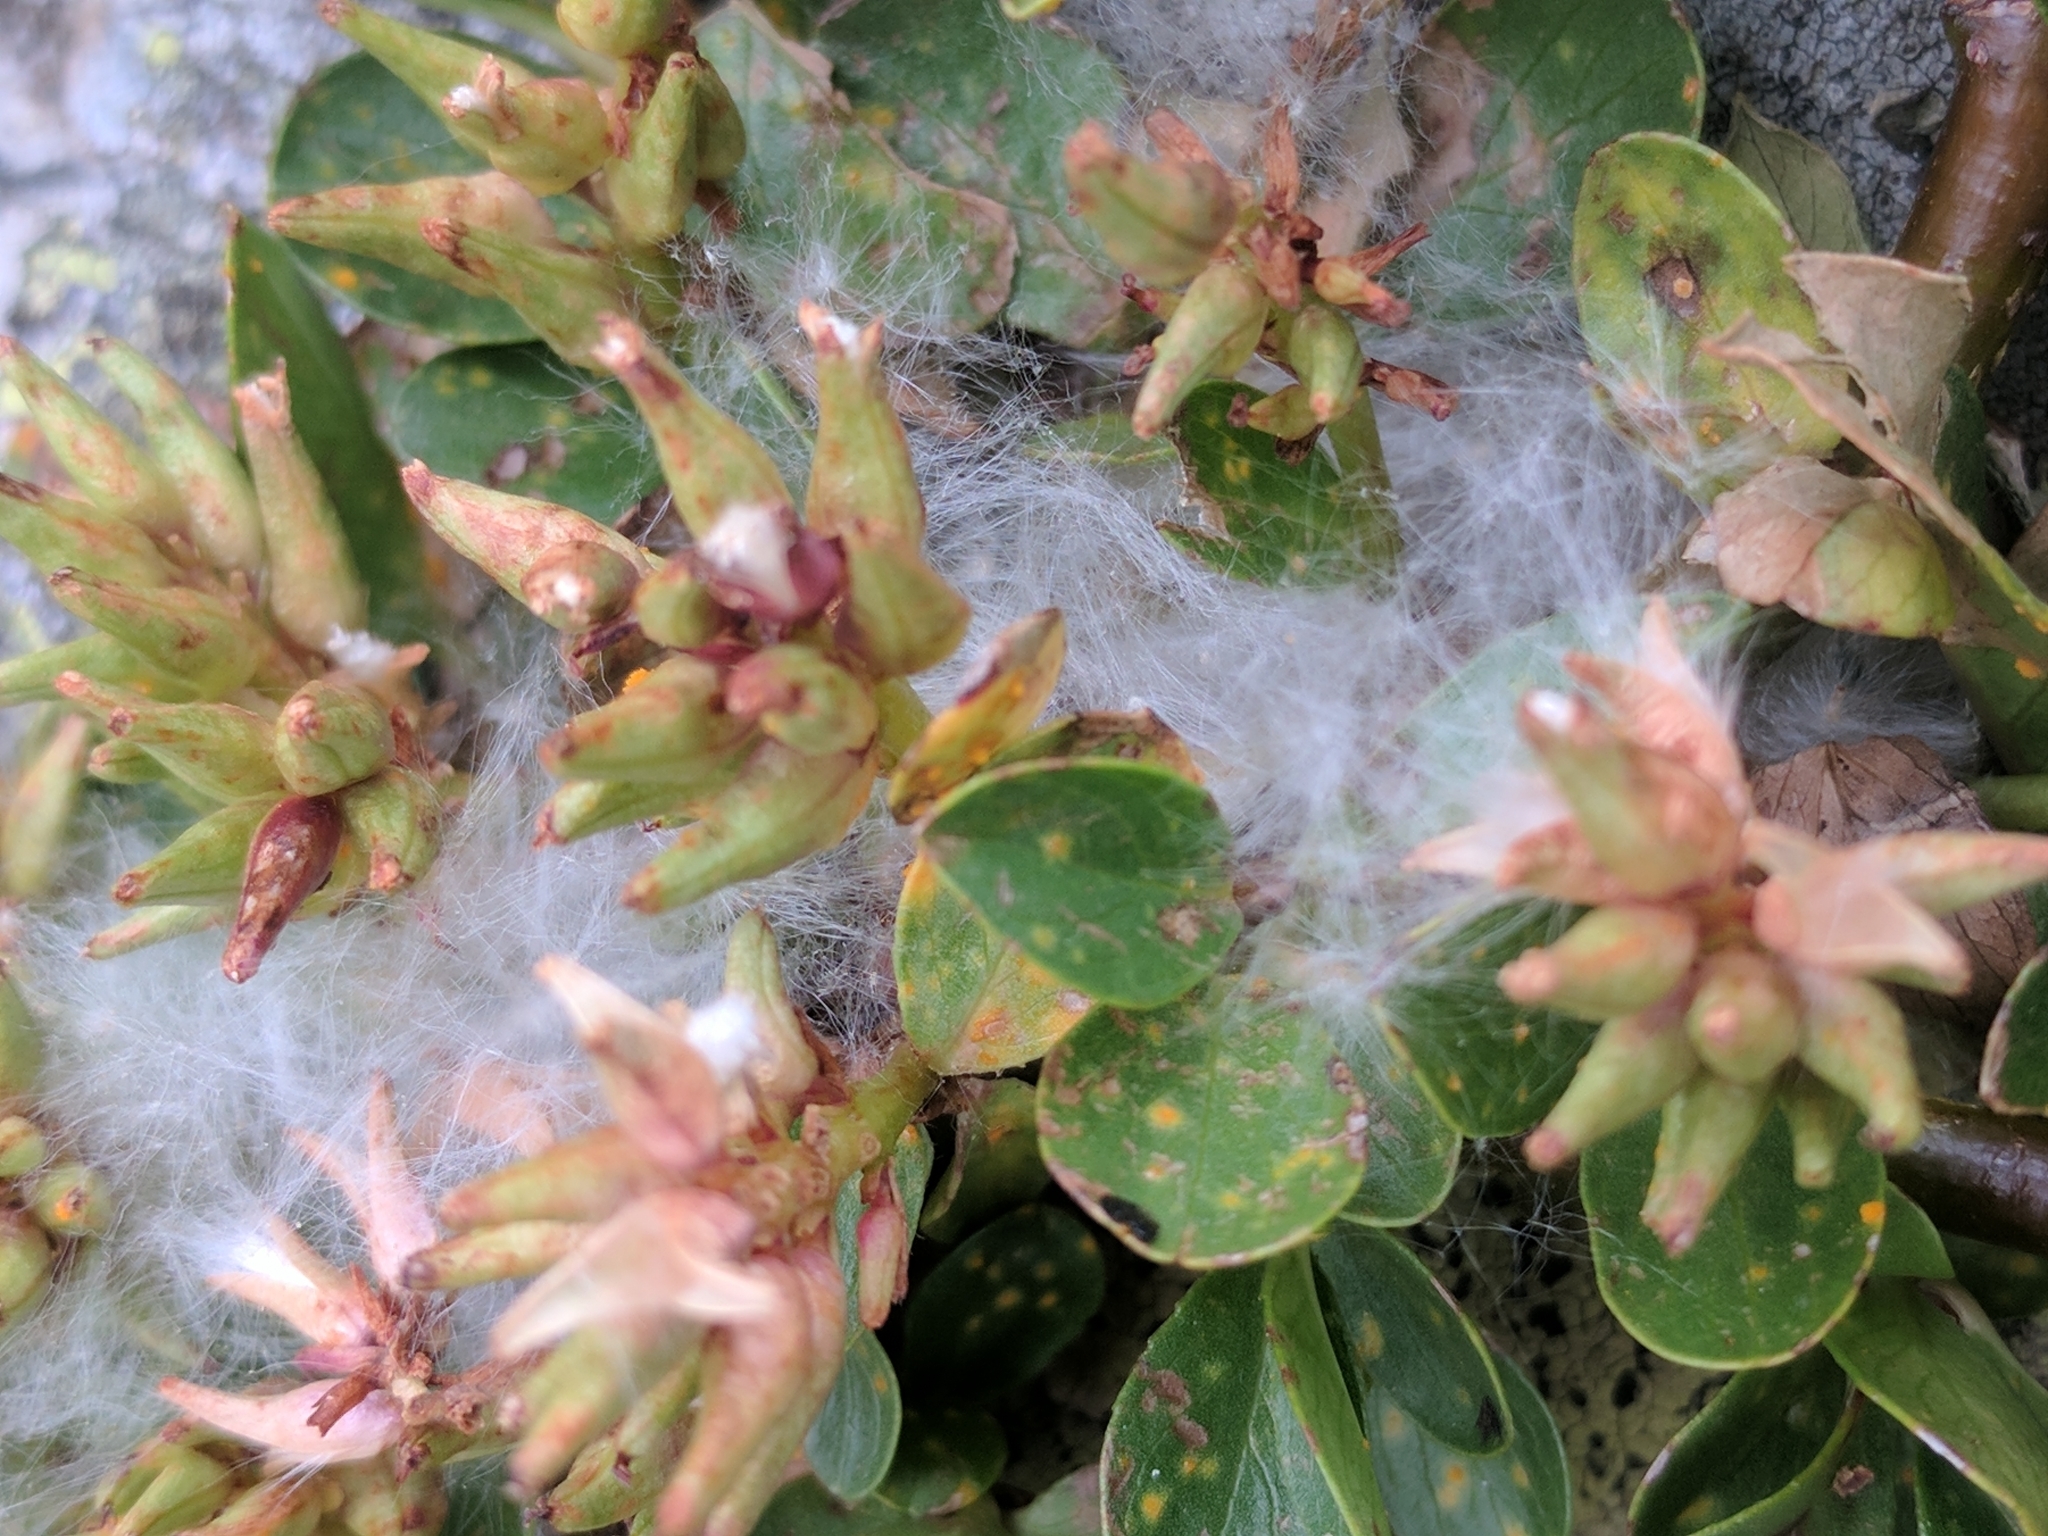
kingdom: Plantae
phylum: Tracheophyta
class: Magnoliopsida
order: Malpighiales
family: Salicaceae
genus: Salix
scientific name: Salix retusa
